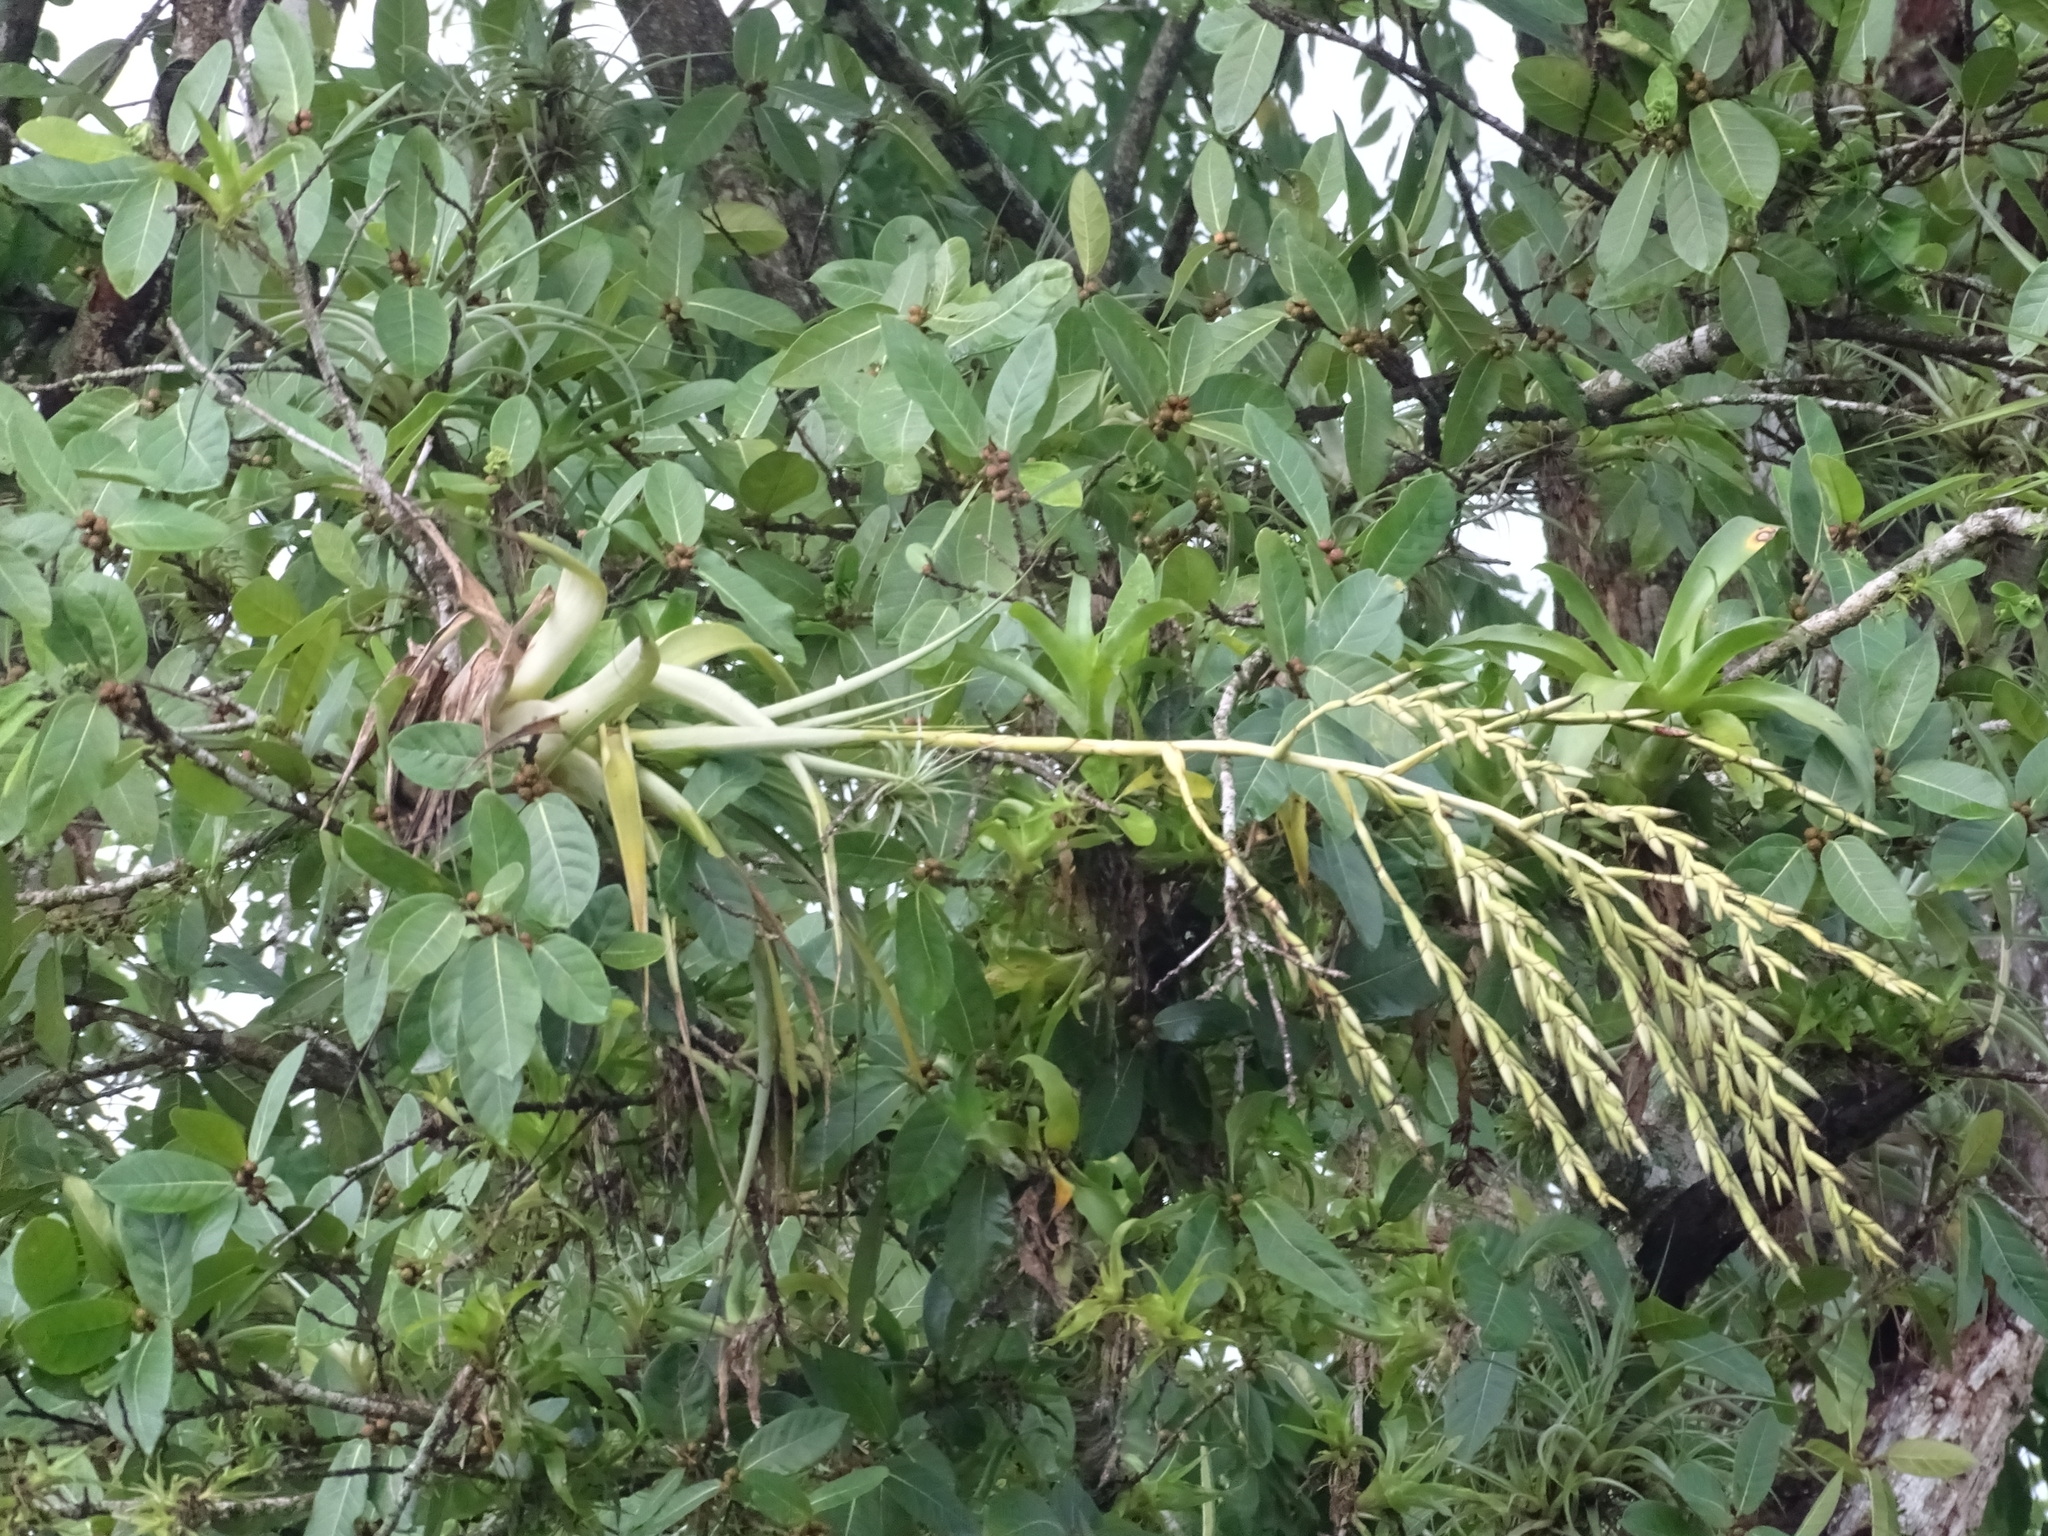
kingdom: Plantae
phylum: Tracheophyta
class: Liliopsida
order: Poales
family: Bromeliaceae
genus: Tillandsia
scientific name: Tillandsia dasyliriifolia
